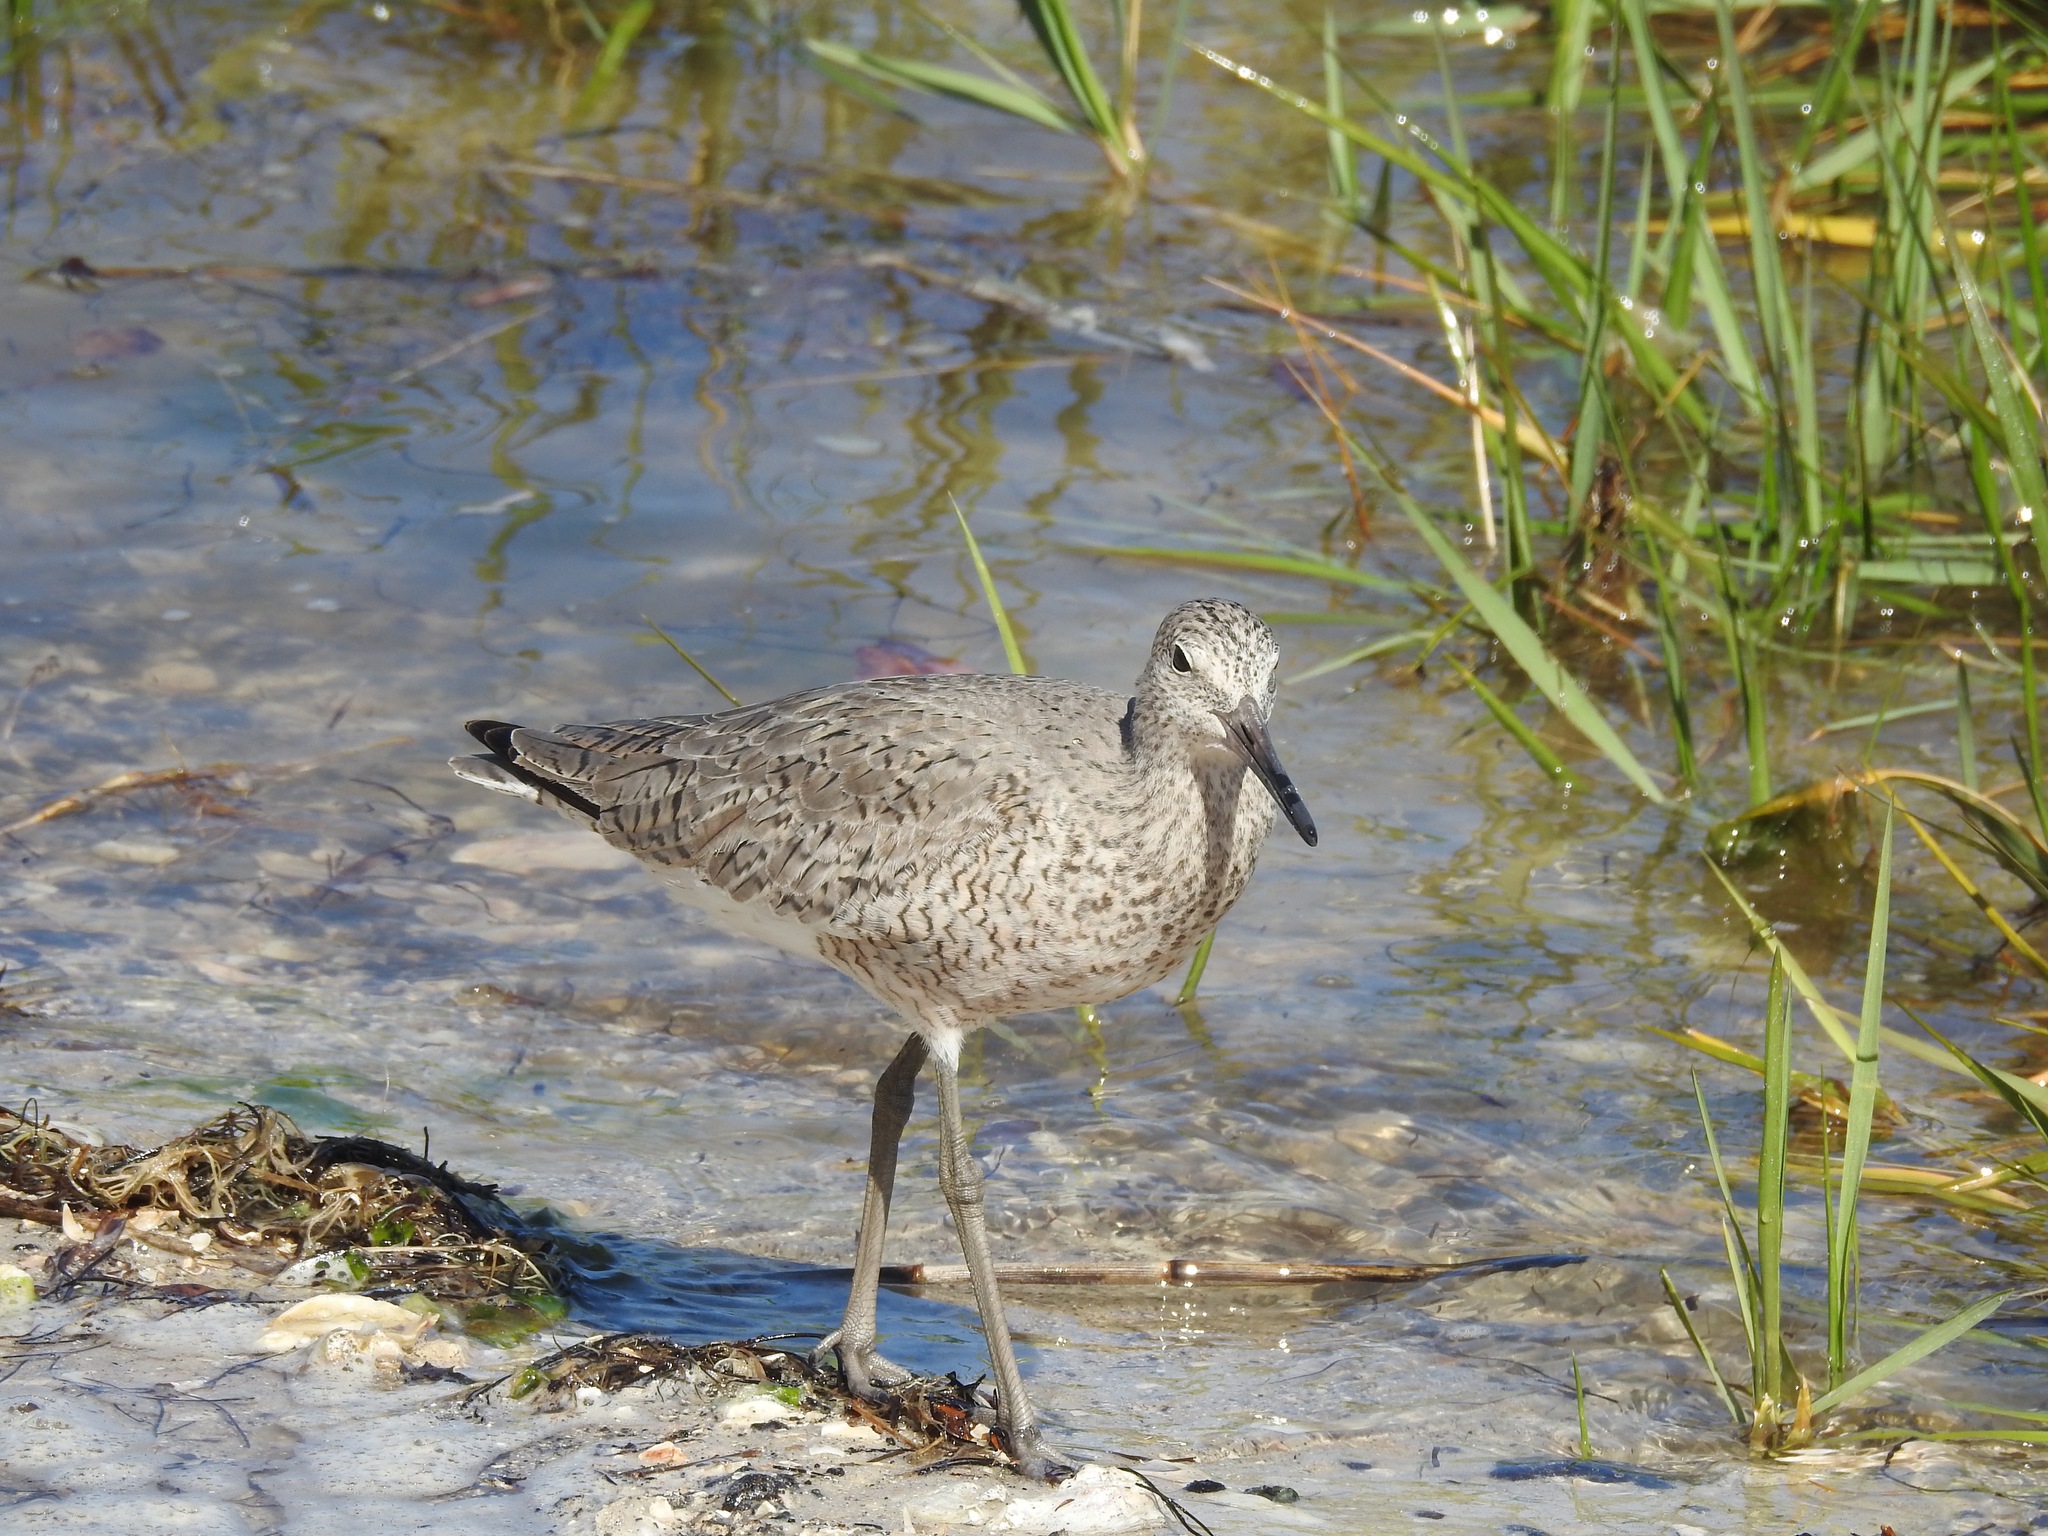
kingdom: Animalia
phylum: Chordata
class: Aves
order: Charadriiformes
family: Scolopacidae
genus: Tringa
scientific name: Tringa semipalmata
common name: Willet
